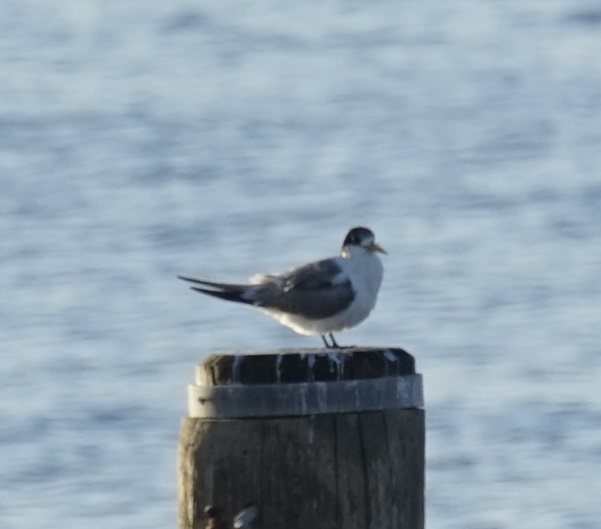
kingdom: Animalia
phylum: Chordata
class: Aves
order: Charadriiformes
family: Laridae
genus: Thalasseus
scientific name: Thalasseus bergii
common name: Greater crested tern
